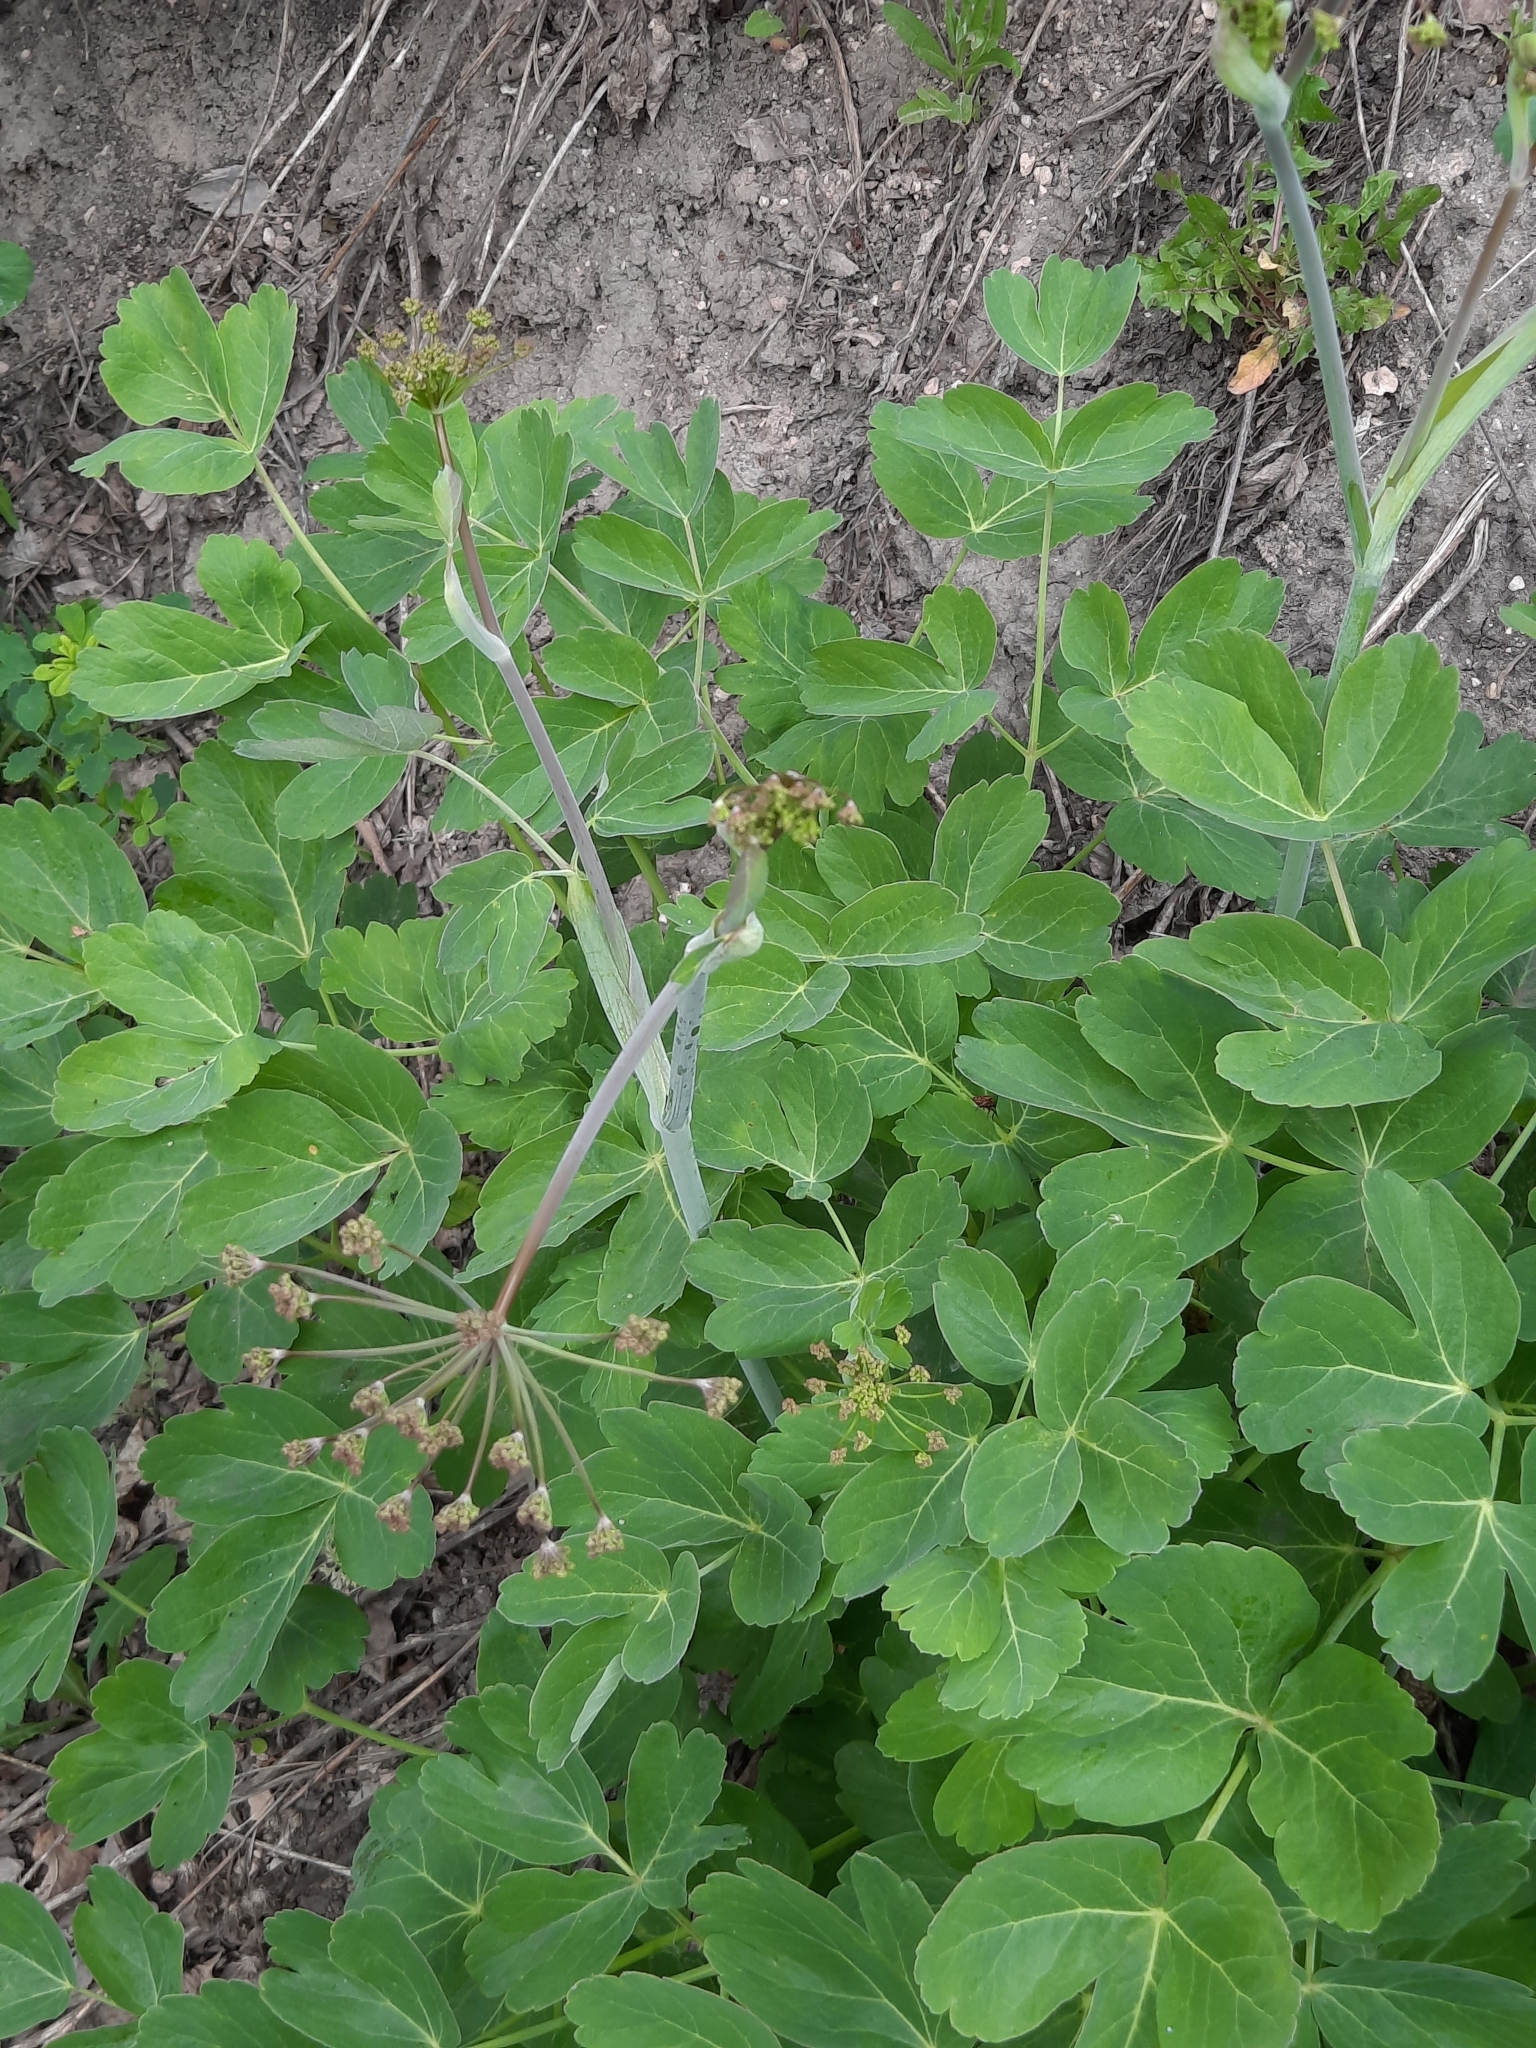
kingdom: Plantae
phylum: Tracheophyta
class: Magnoliopsida
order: Apiales
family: Apiaceae
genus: Laser
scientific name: Laser trilobum
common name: Laser
